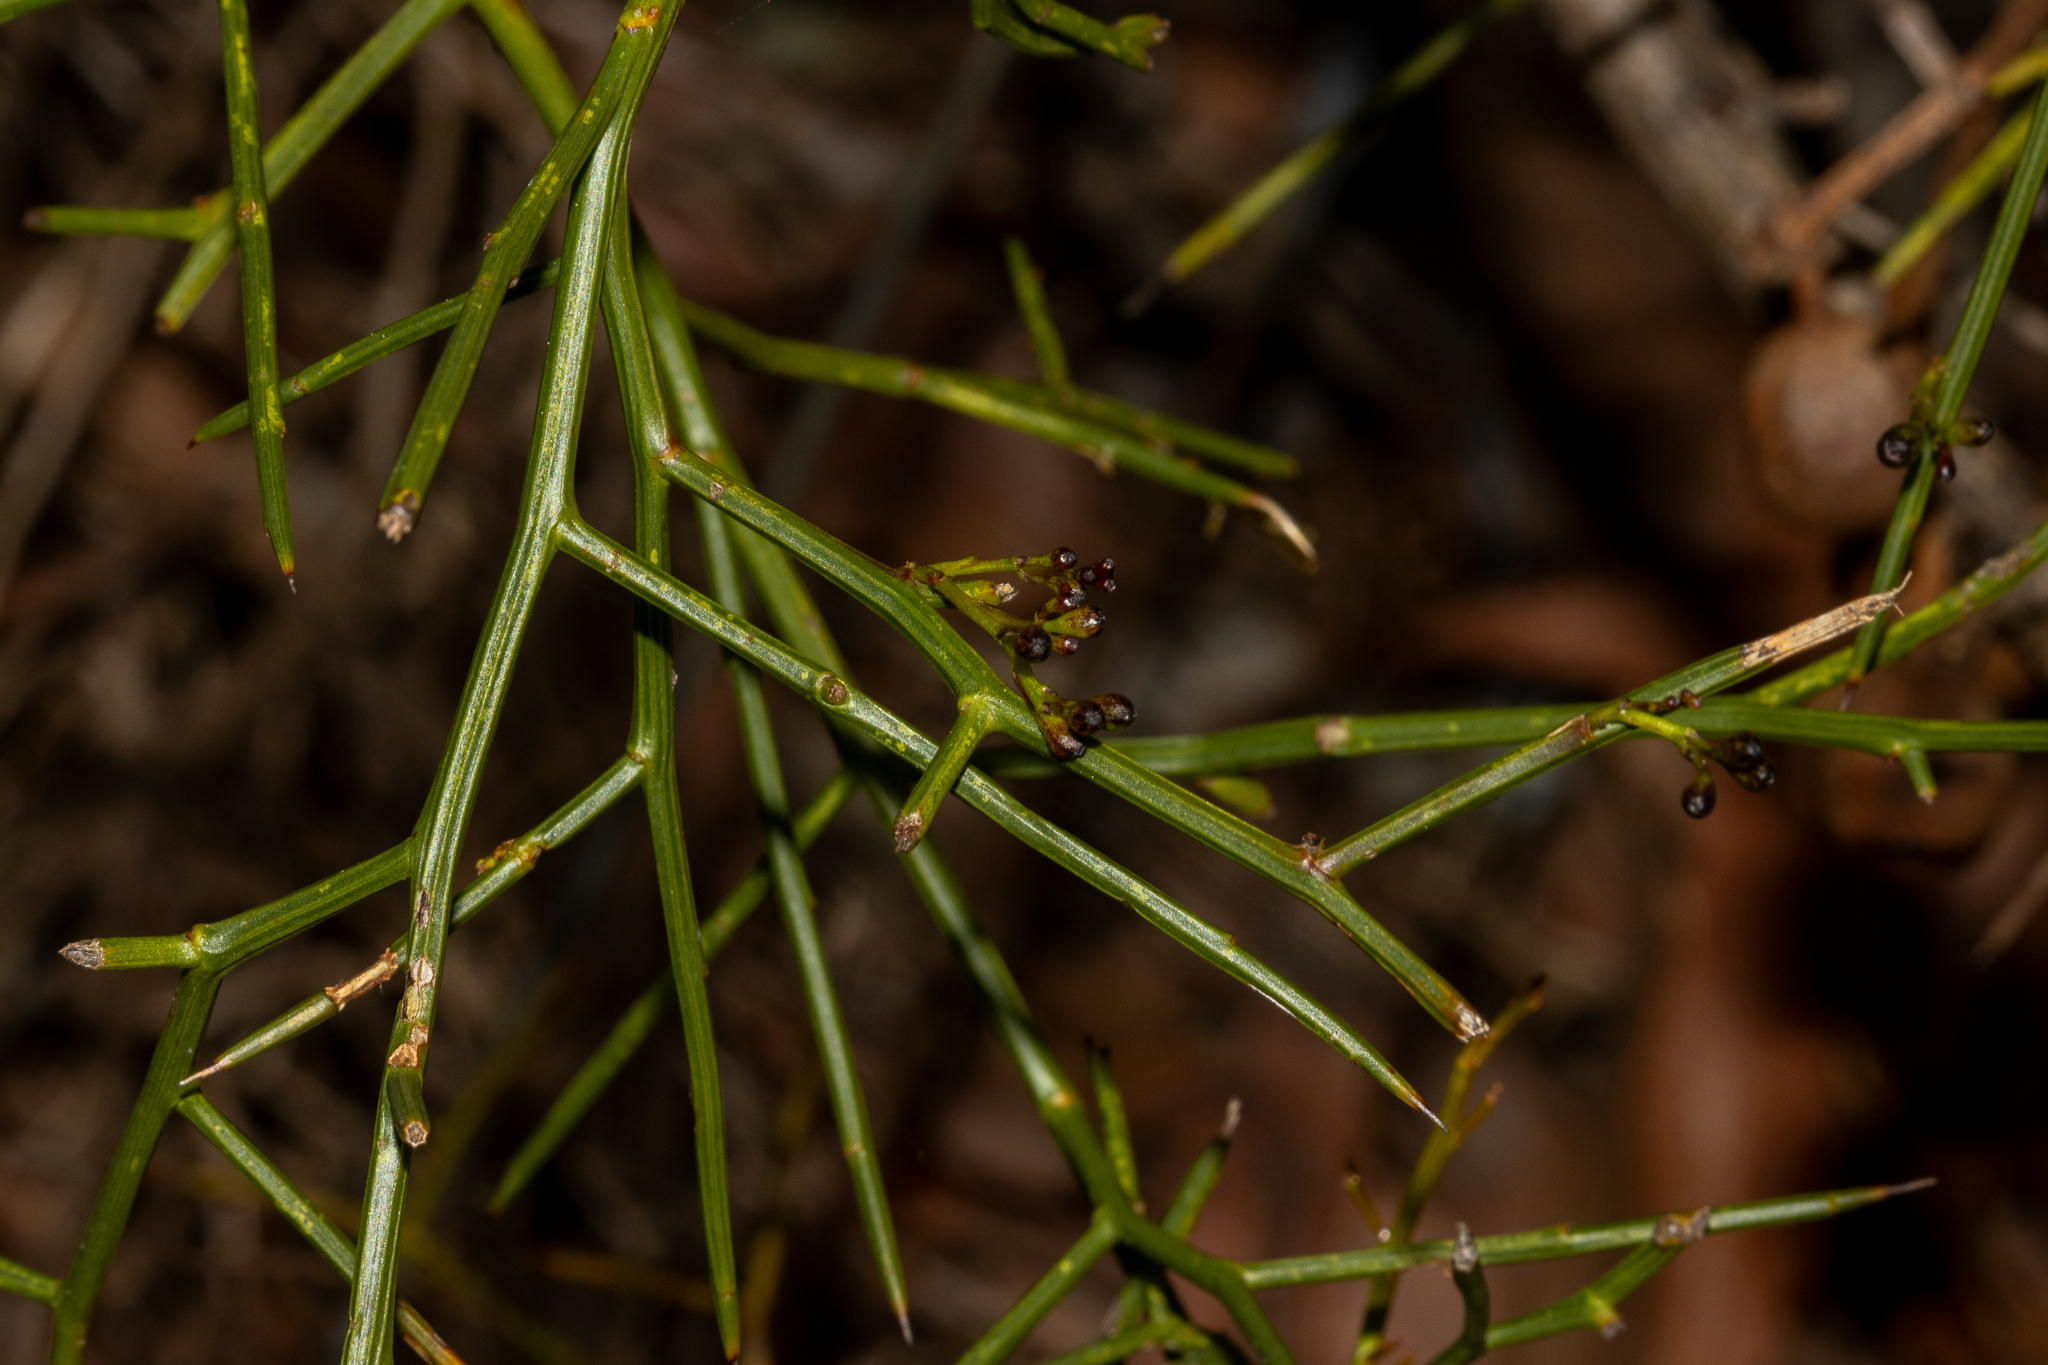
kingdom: Plantae
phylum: Tracheophyta
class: Magnoliopsida
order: Fabales
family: Fabaceae
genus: Daviesia
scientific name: Daviesia divaricata
